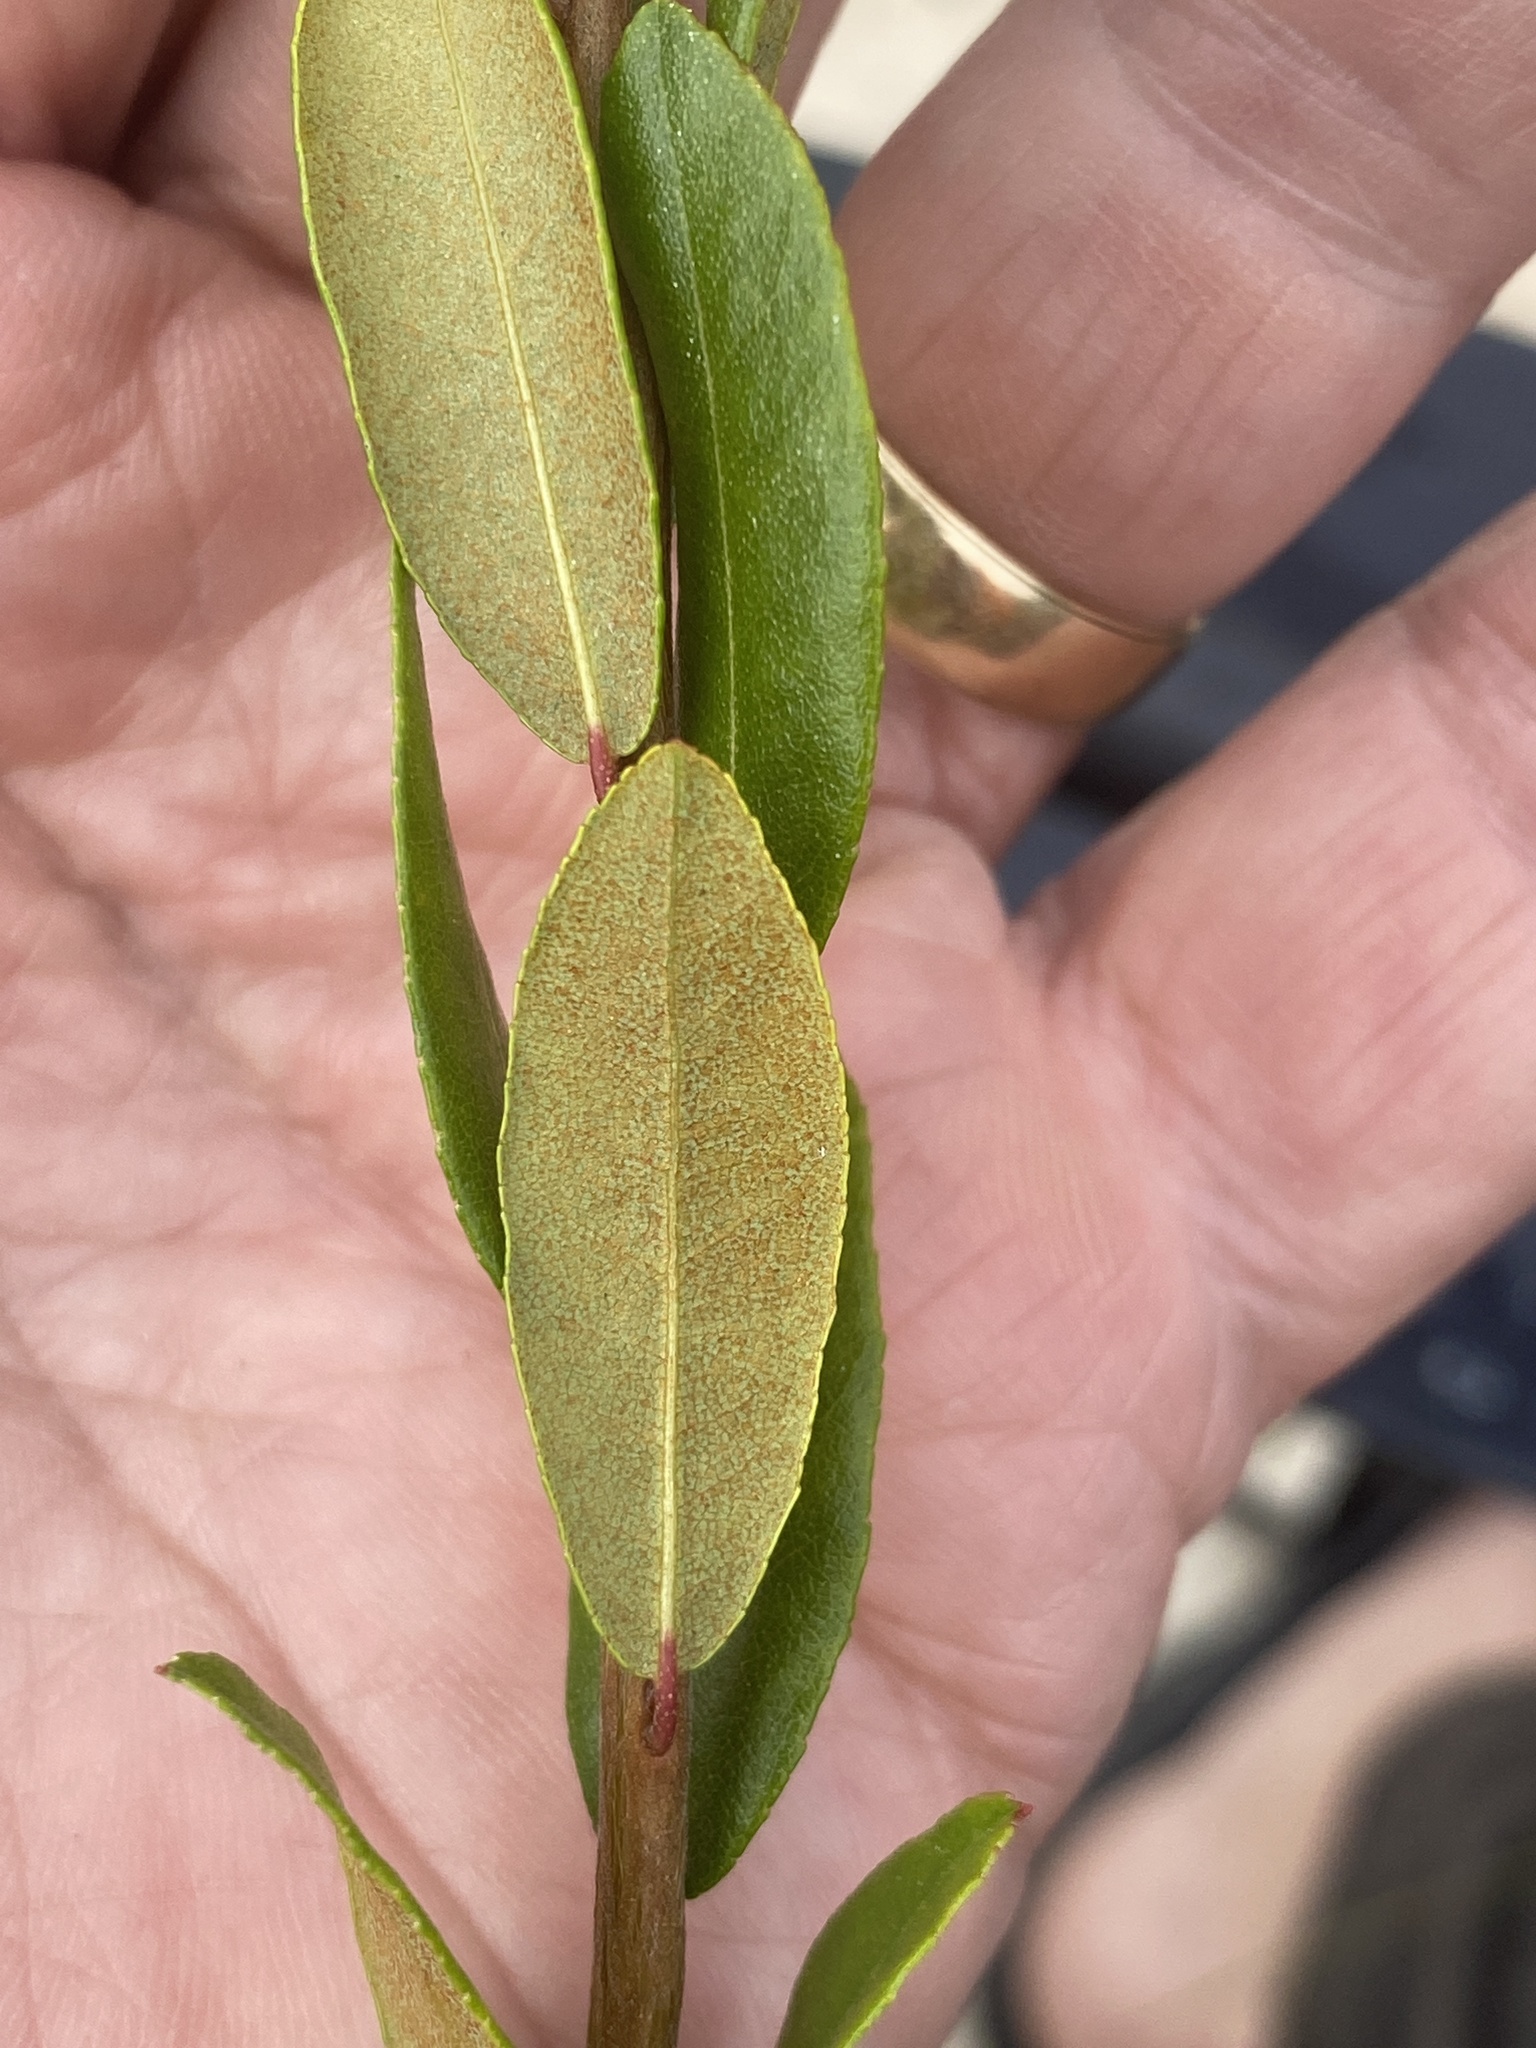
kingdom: Plantae
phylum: Tracheophyta
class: Magnoliopsida
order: Ericales
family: Ericaceae
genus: Chamaedaphne
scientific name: Chamaedaphne calyculata
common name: Leatherleaf
